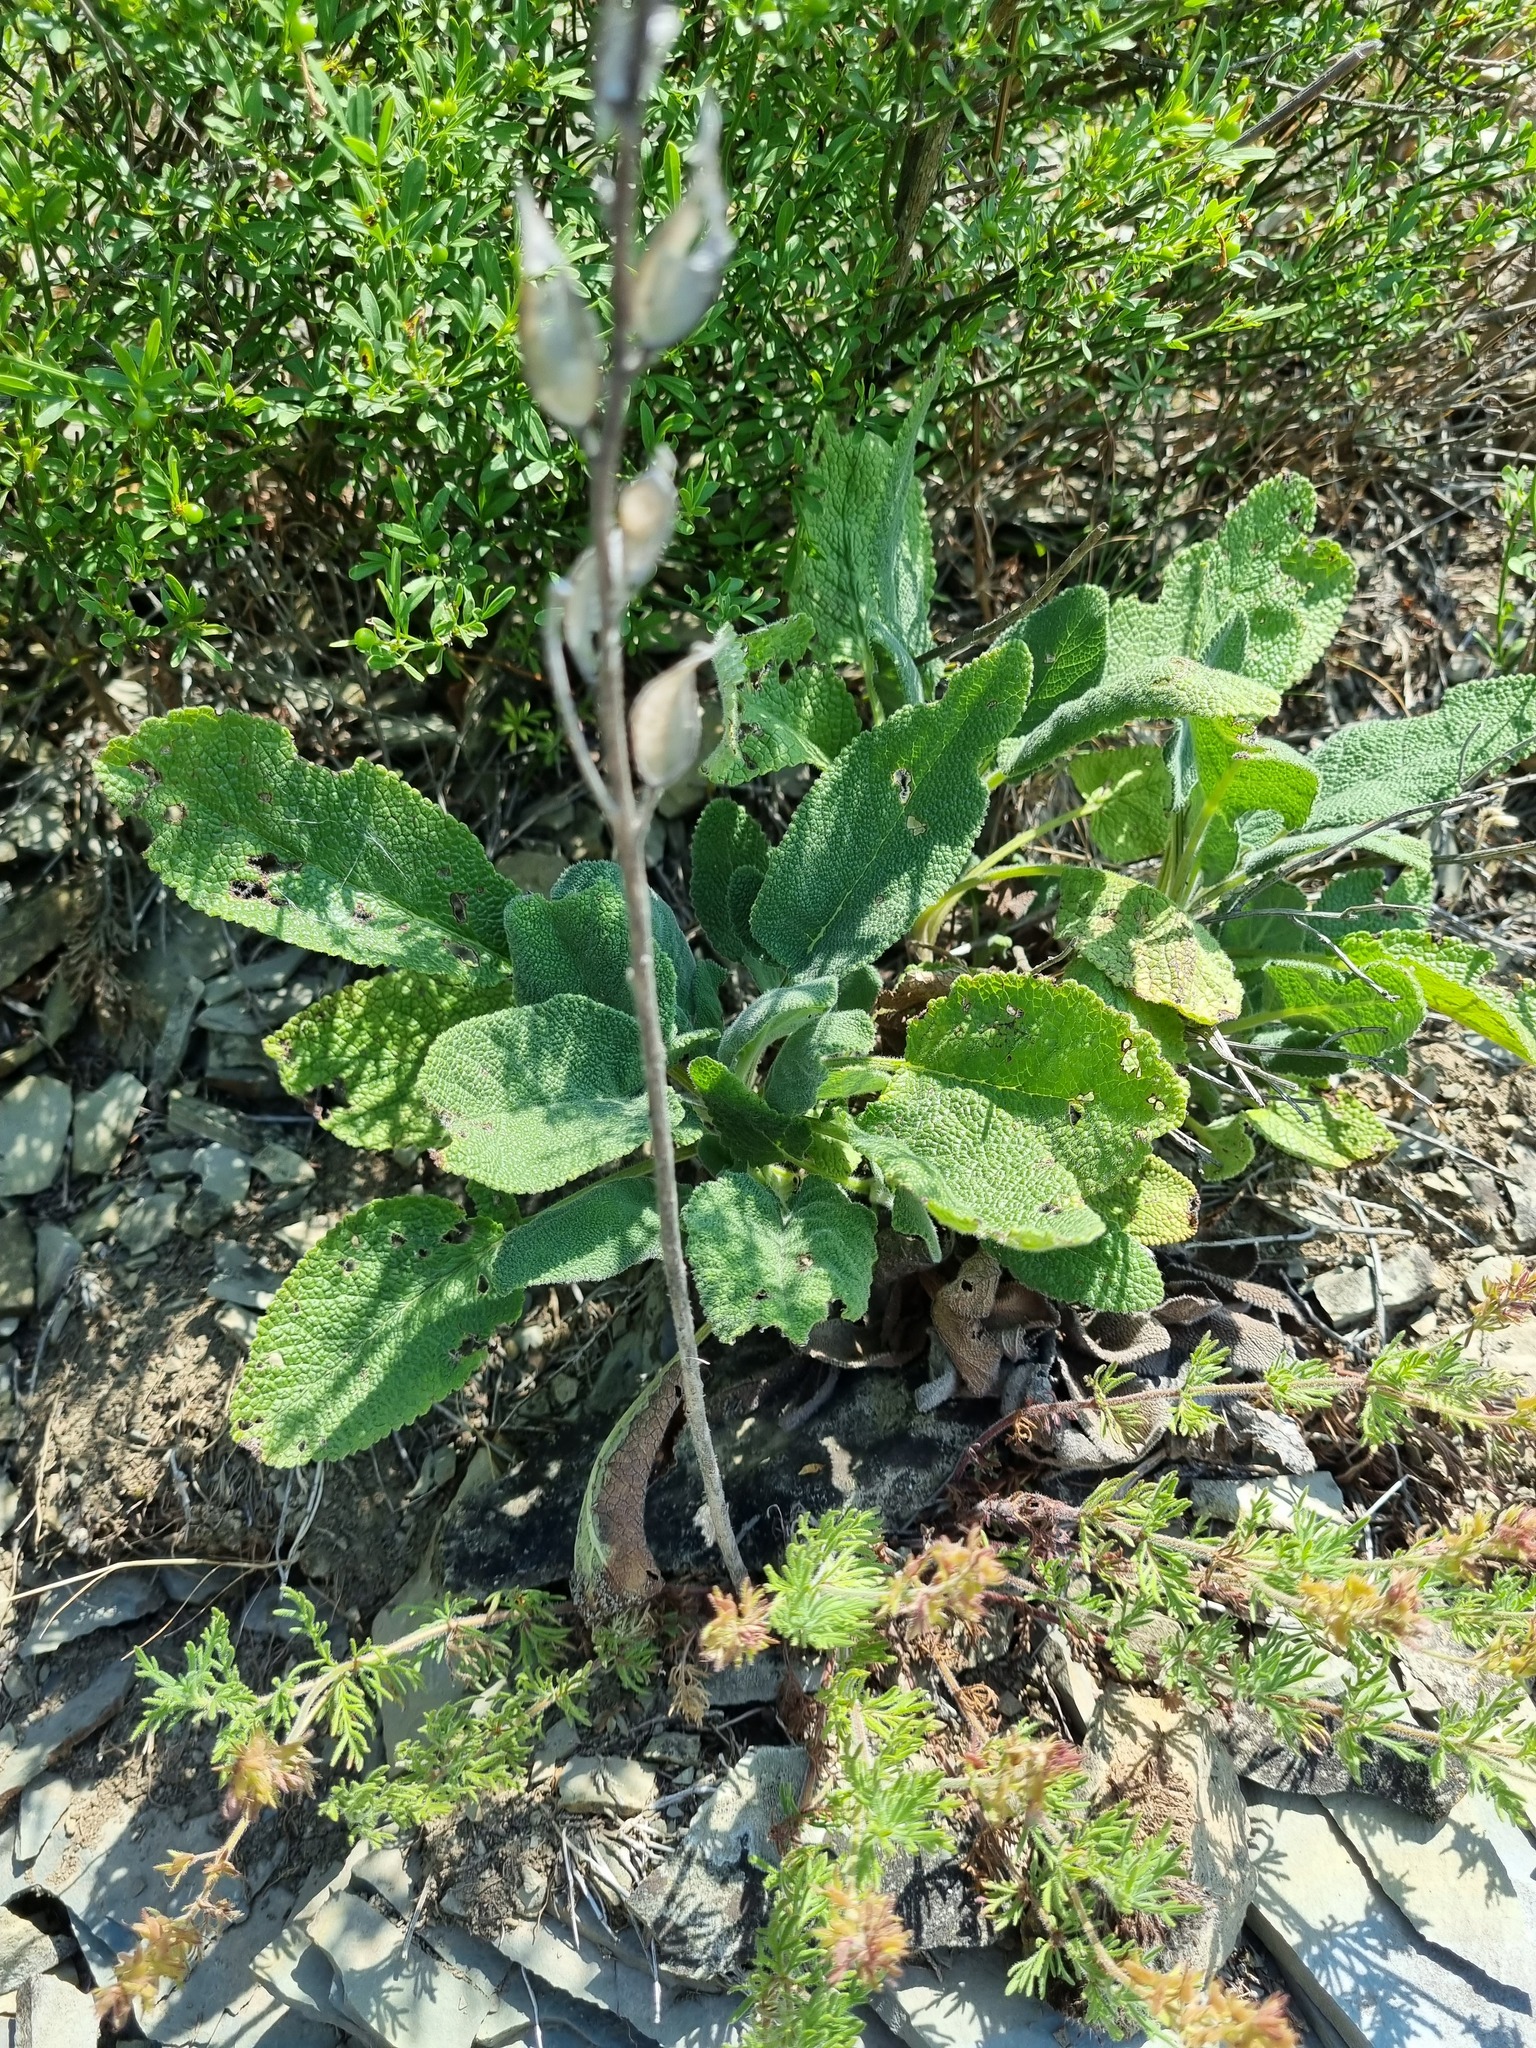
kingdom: Plantae
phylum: Tracheophyta
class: Magnoliopsida
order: Lamiales
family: Plantaginaceae
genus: Veronica
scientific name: Veronica capsellicarpa
